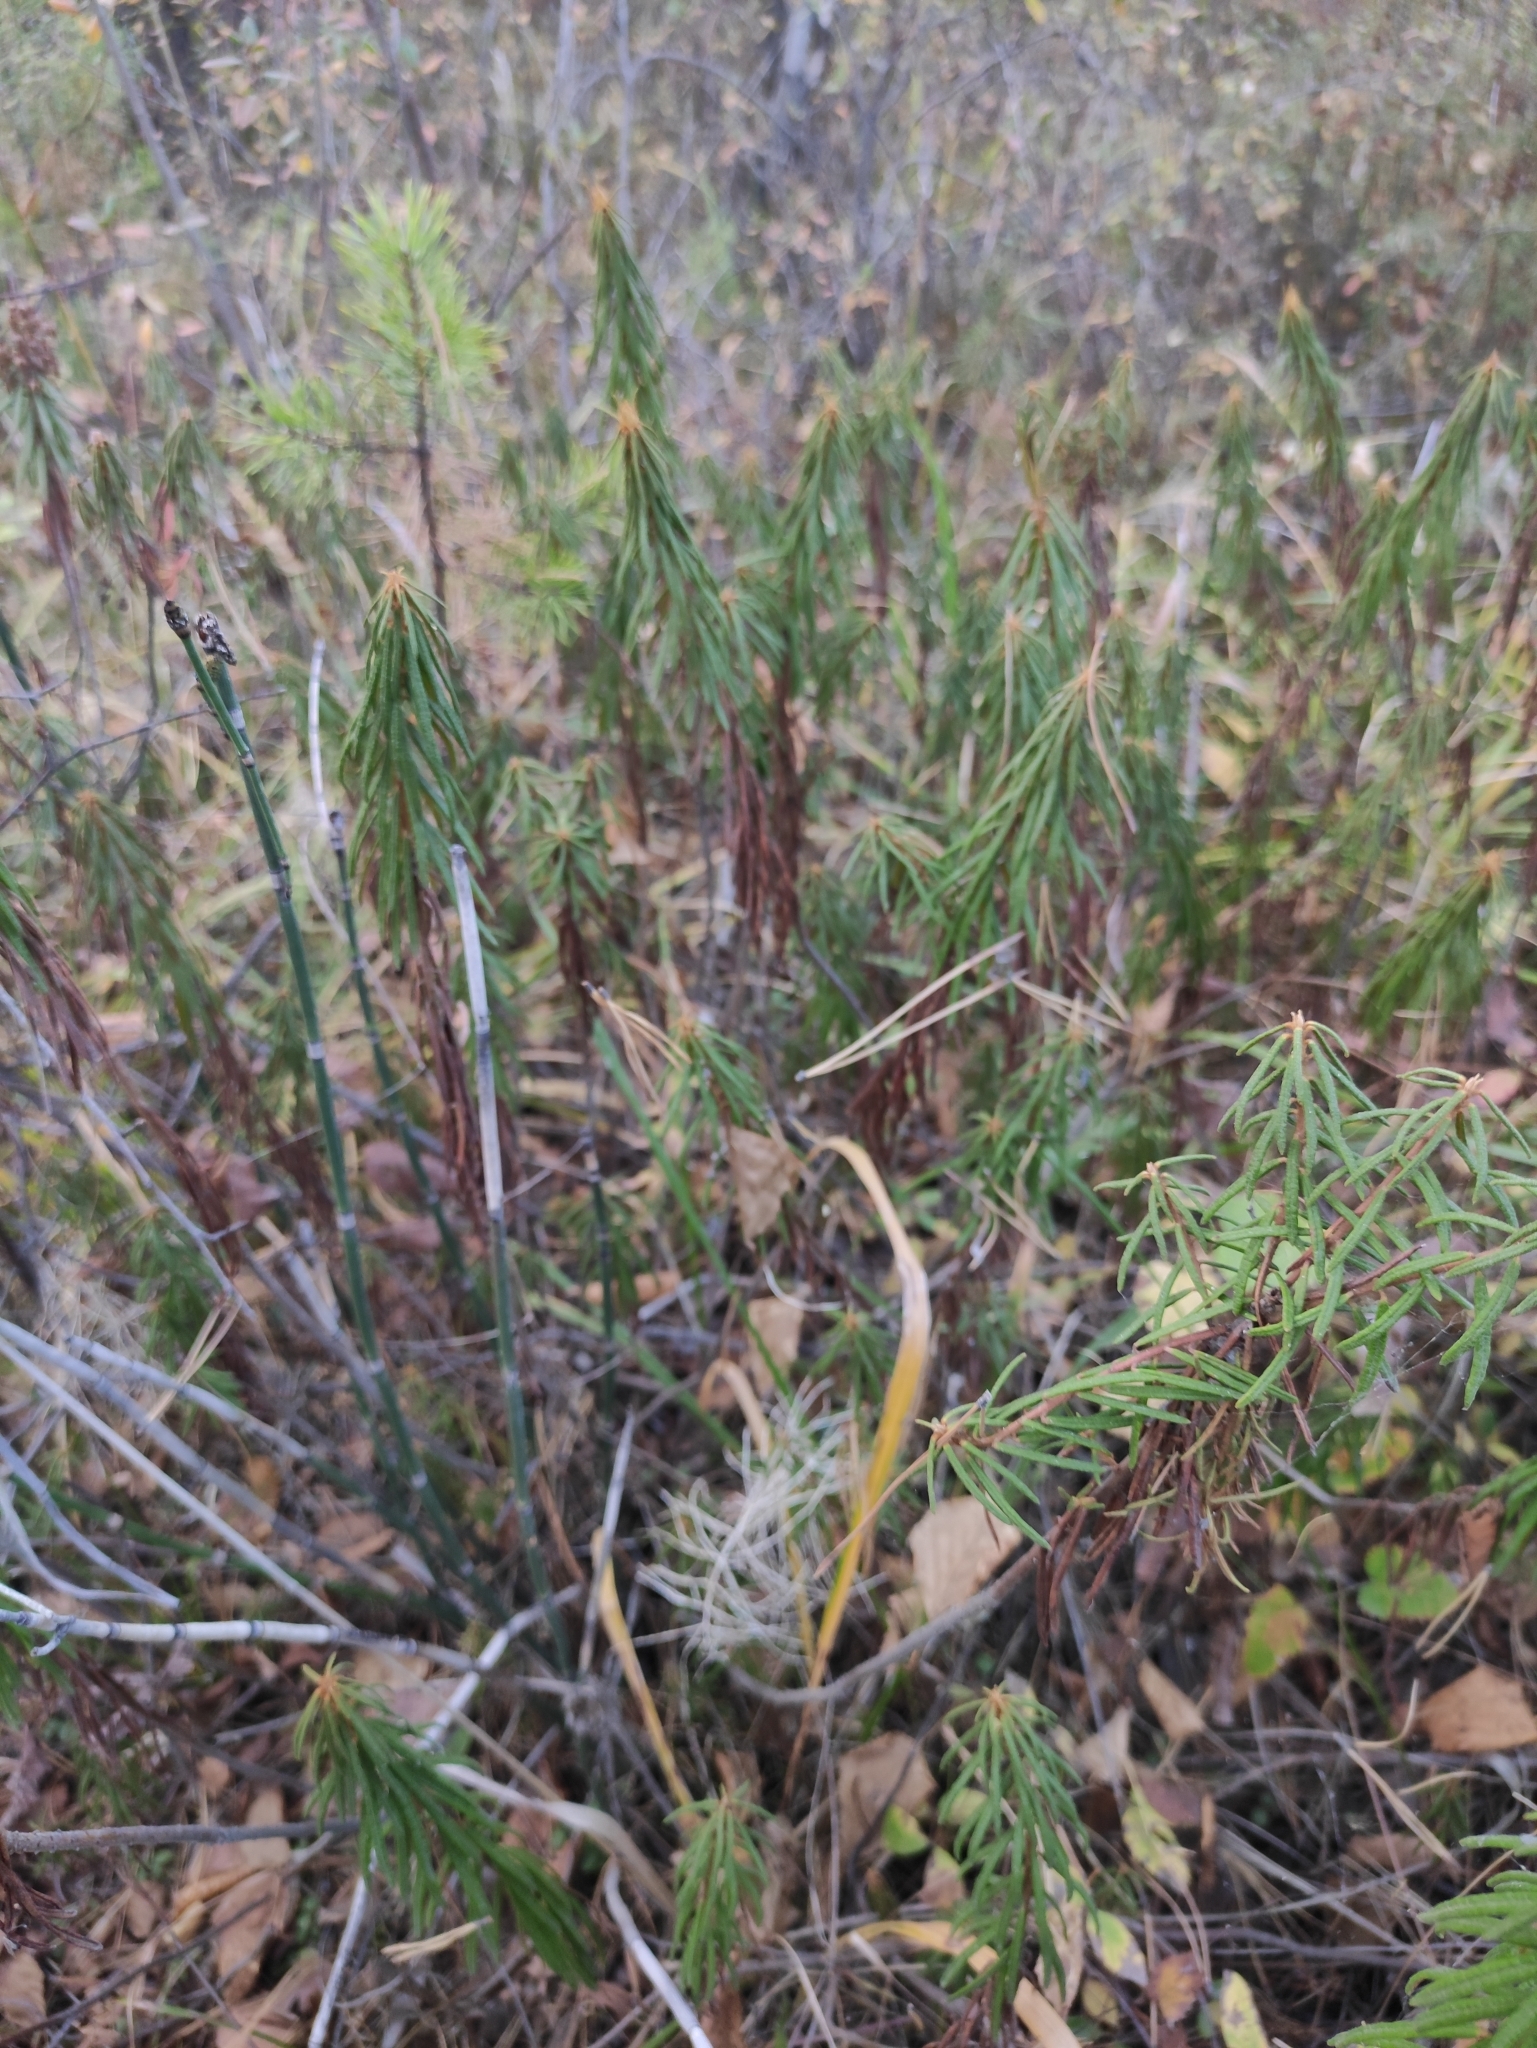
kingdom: Plantae
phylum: Tracheophyta
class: Magnoliopsida
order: Ericales
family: Ericaceae
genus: Rhododendron
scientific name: Rhododendron tomentosum
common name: Marsh labrador tea
